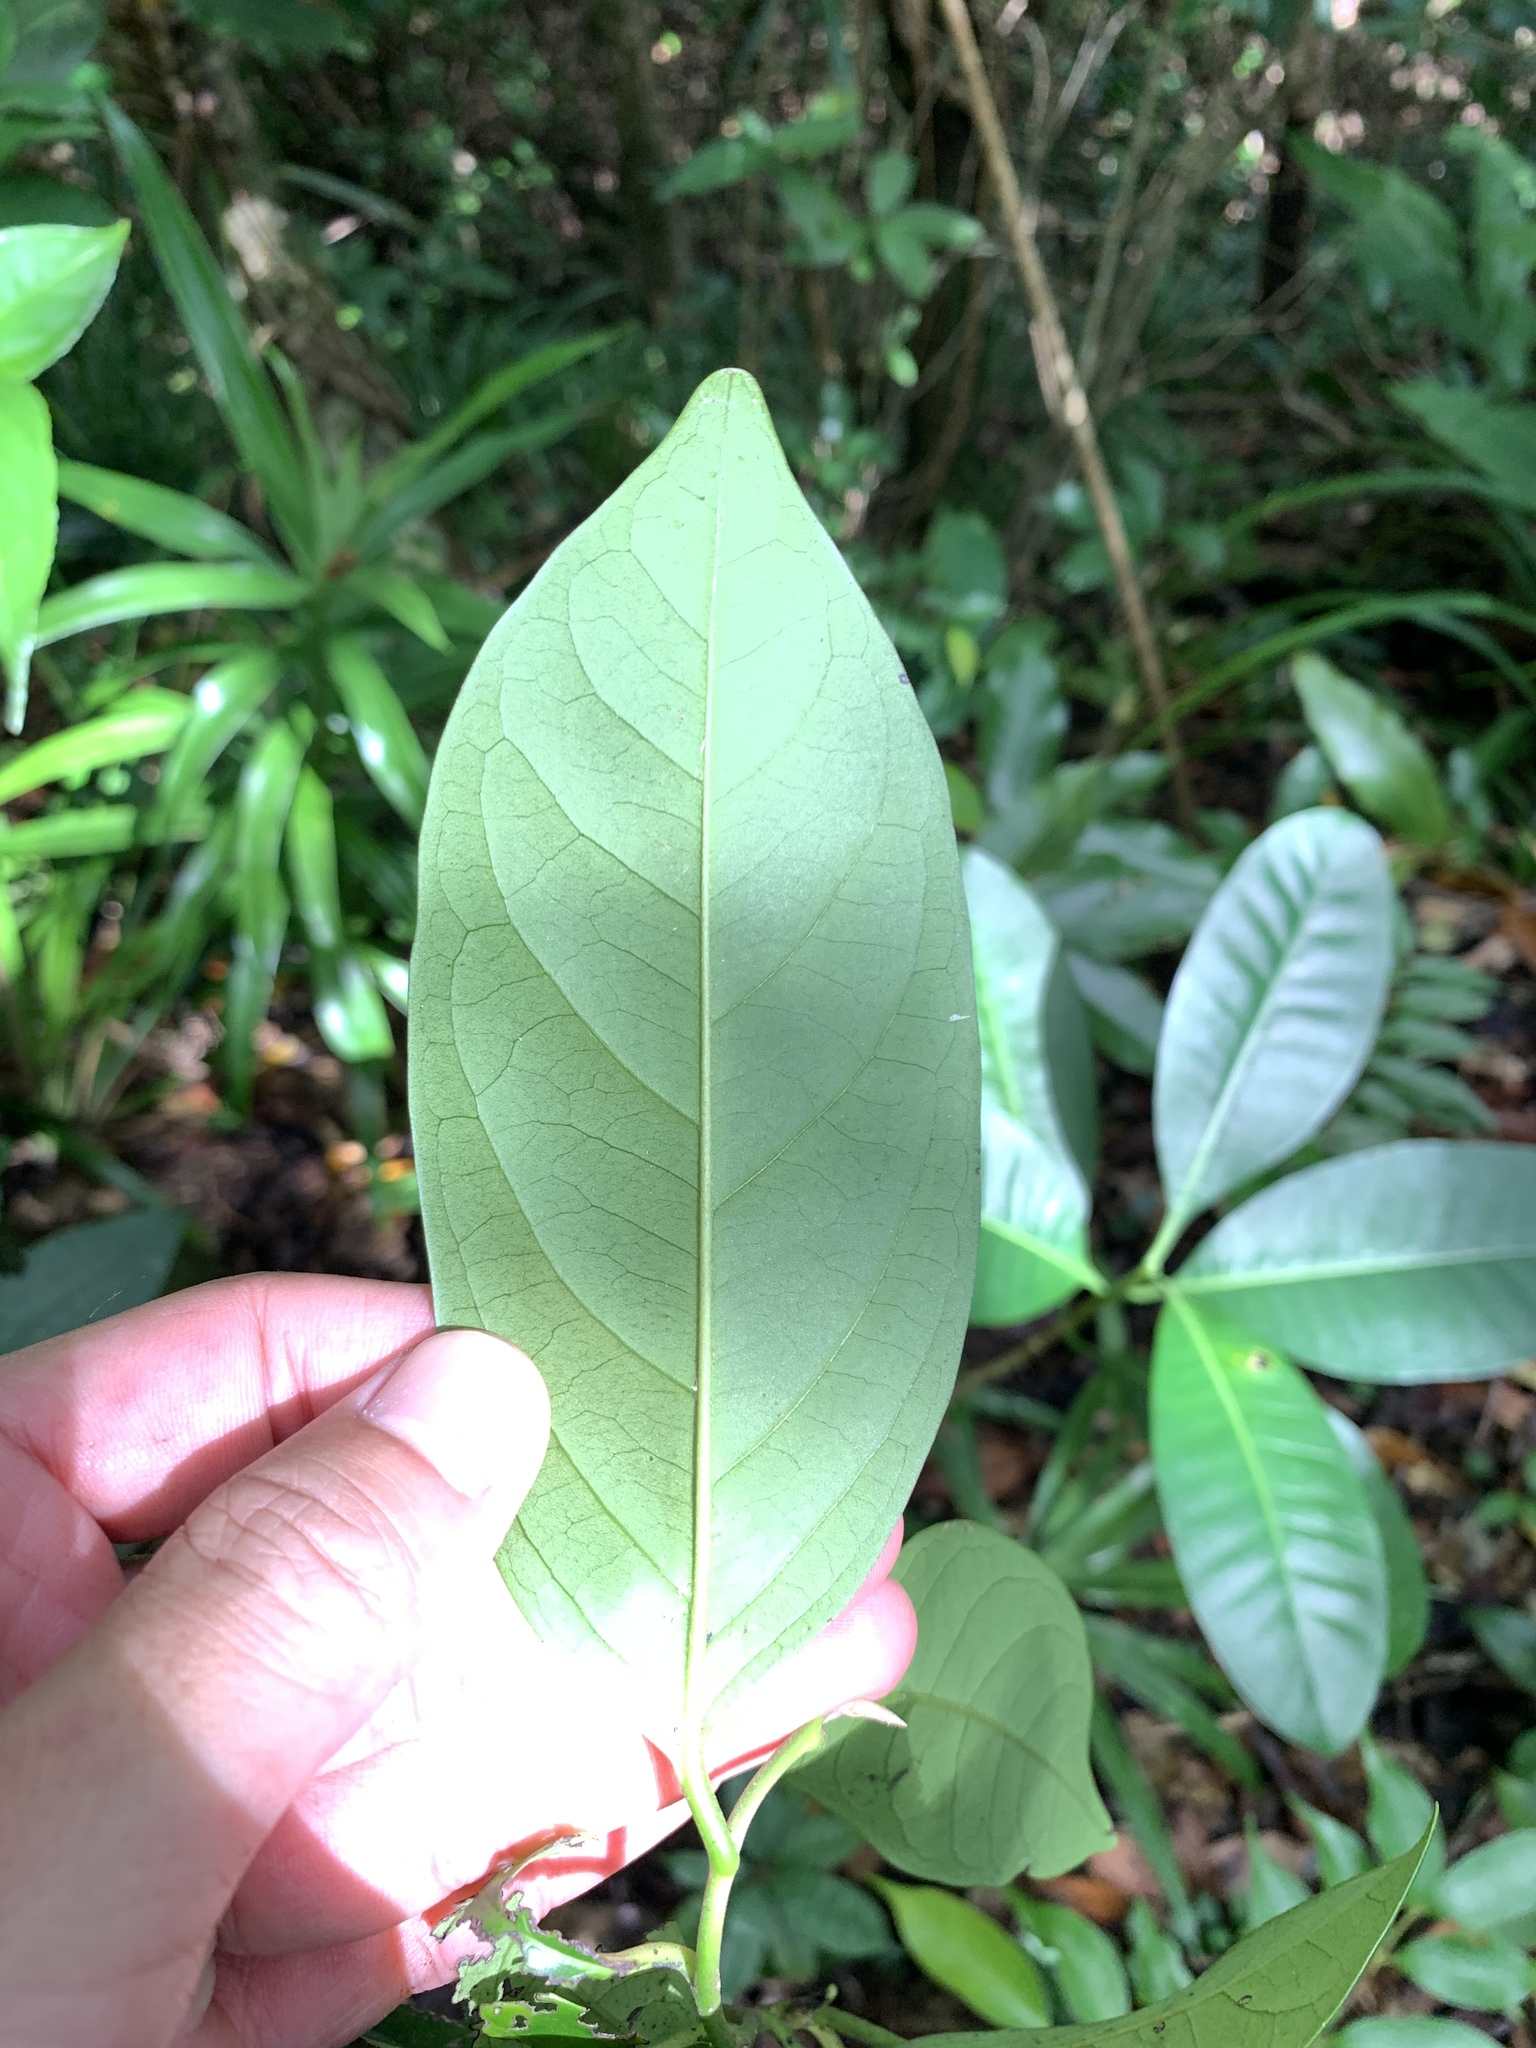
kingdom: Plantae
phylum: Tracheophyta
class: Magnoliopsida
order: Ericales
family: Ebenaceae
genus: Diospyros
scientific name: Diospyros maritima
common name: Malaysian persimmon
